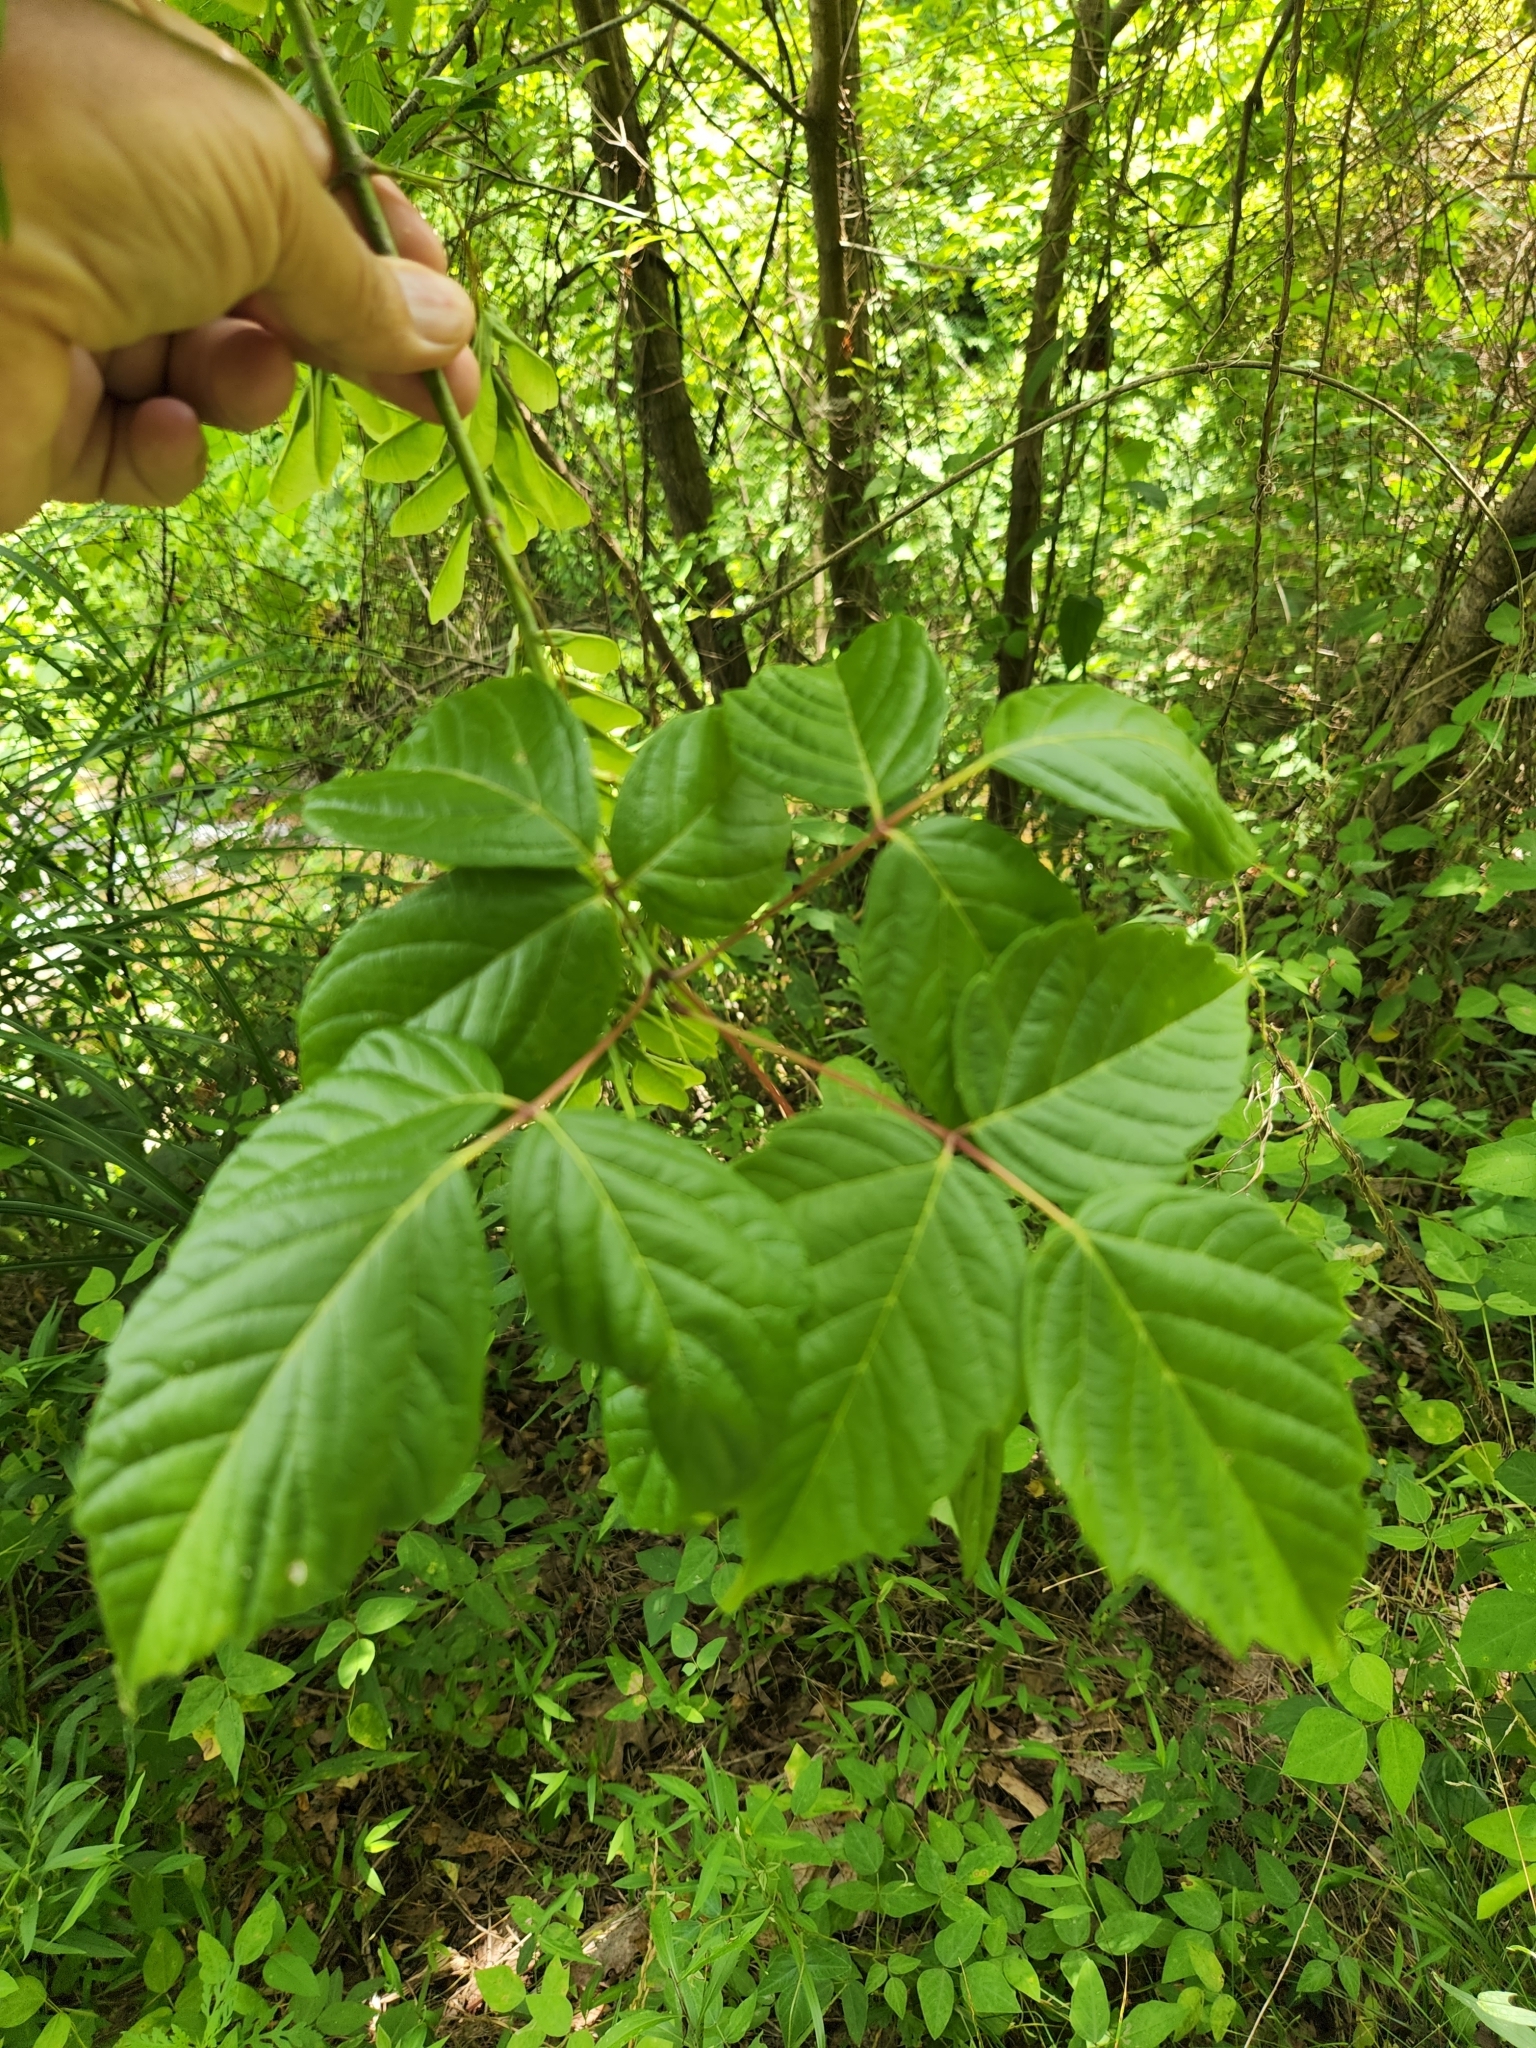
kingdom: Plantae
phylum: Tracheophyta
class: Magnoliopsida
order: Sapindales
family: Sapindaceae
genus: Acer
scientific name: Acer negundo
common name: Ashleaf maple
